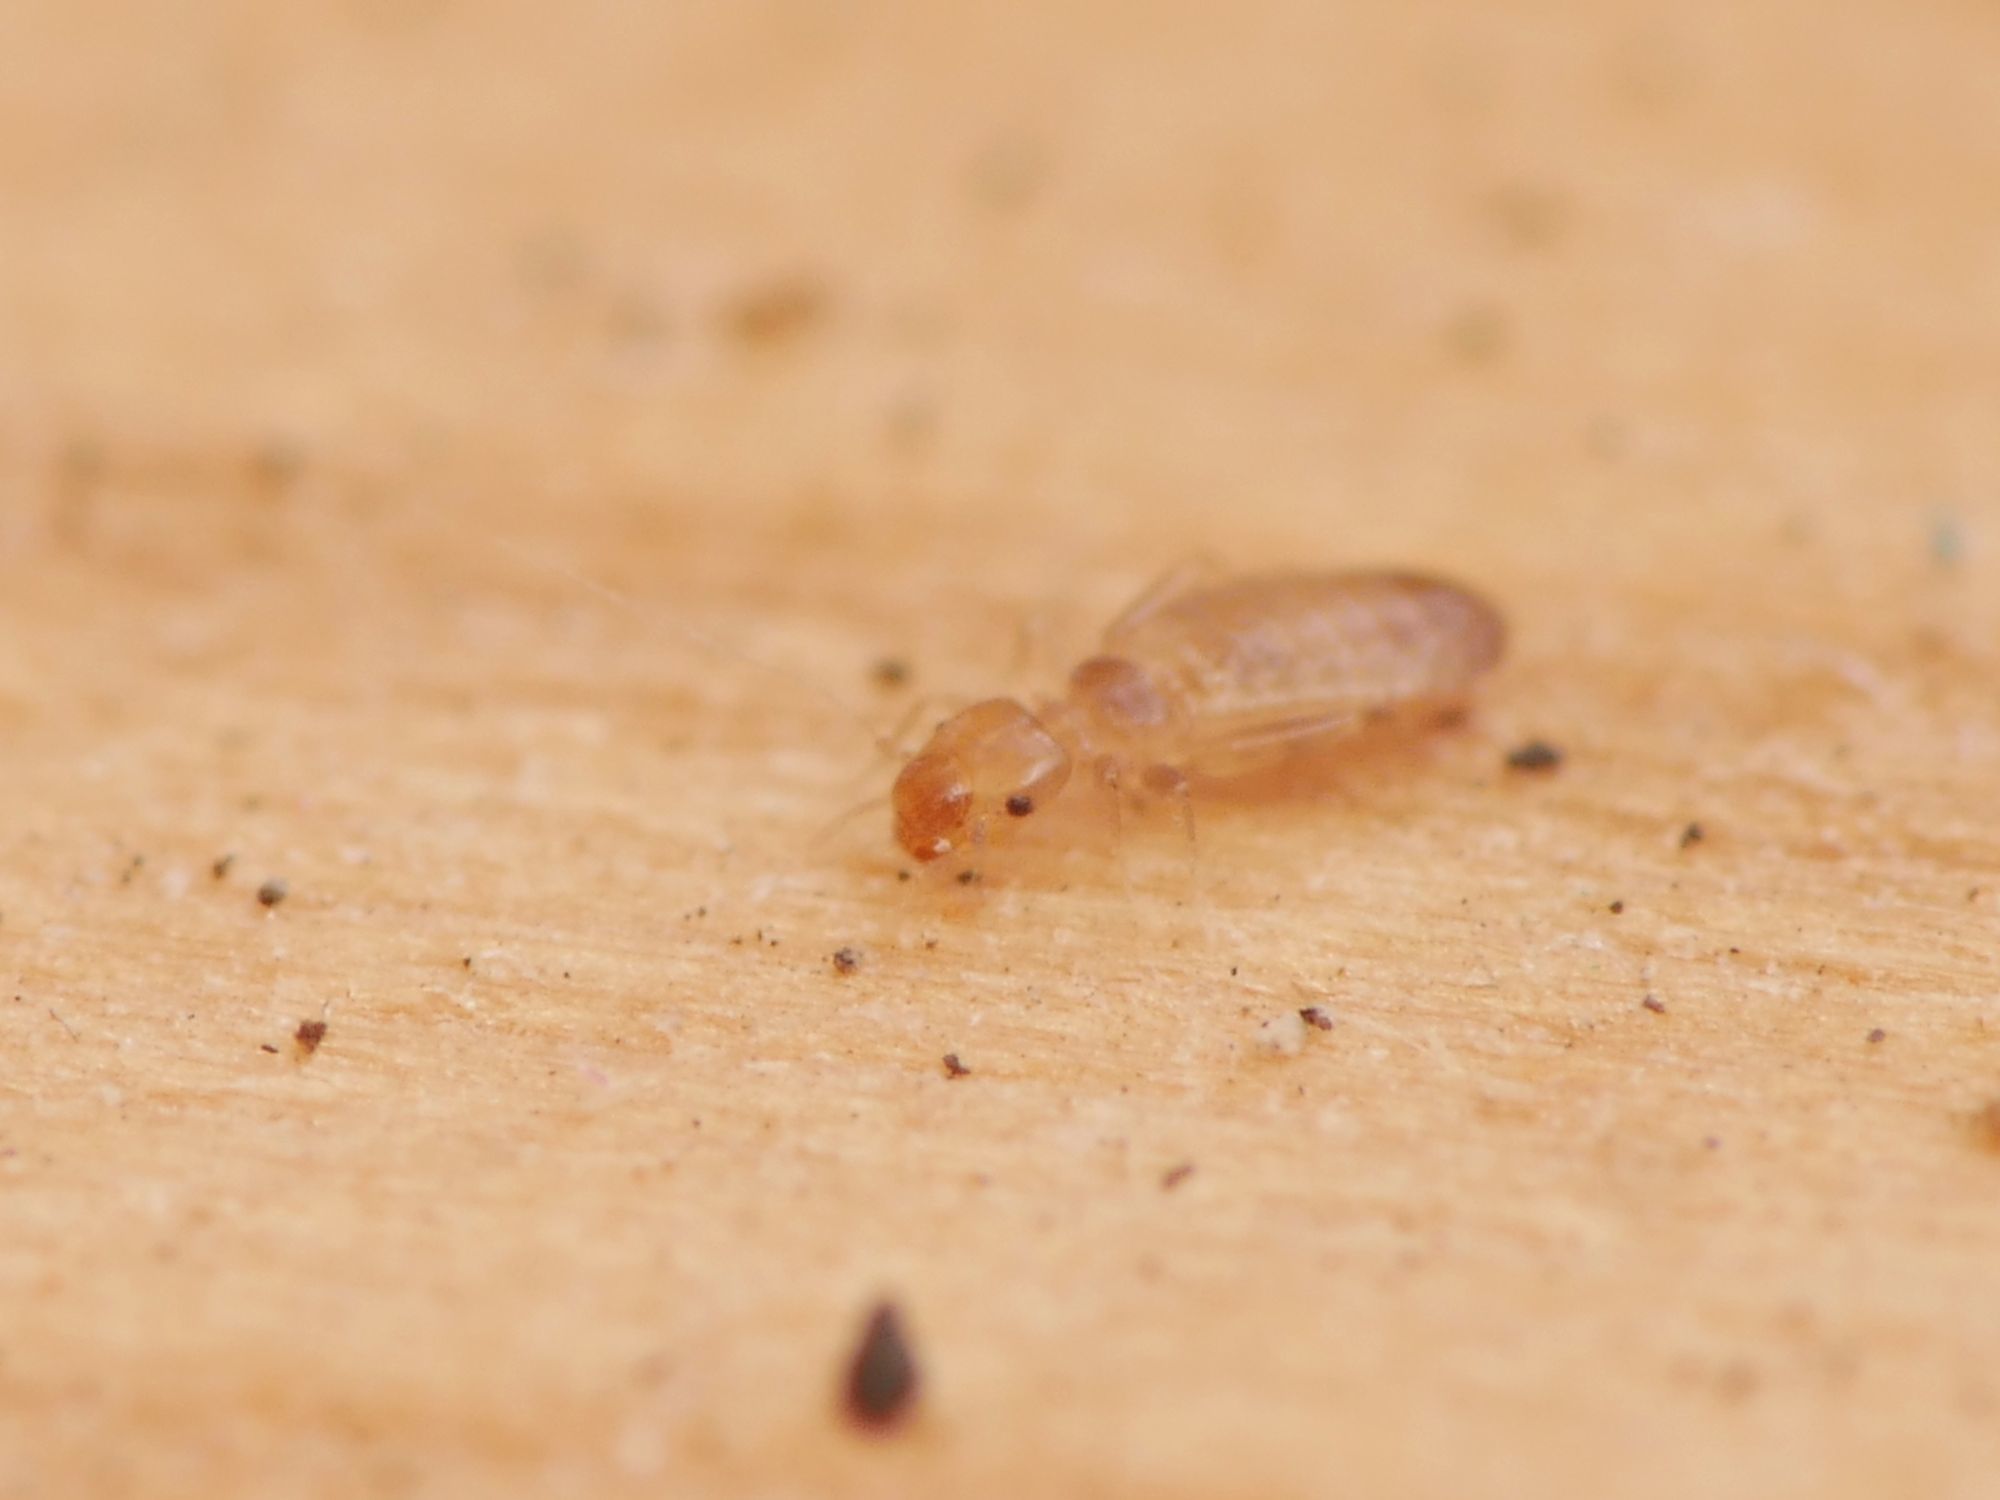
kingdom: Animalia
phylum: Arthropoda
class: Insecta
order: Psocodea
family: Liposcelididae
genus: Liposcelis
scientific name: Liposcelis bostrychophila
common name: Bark lice
